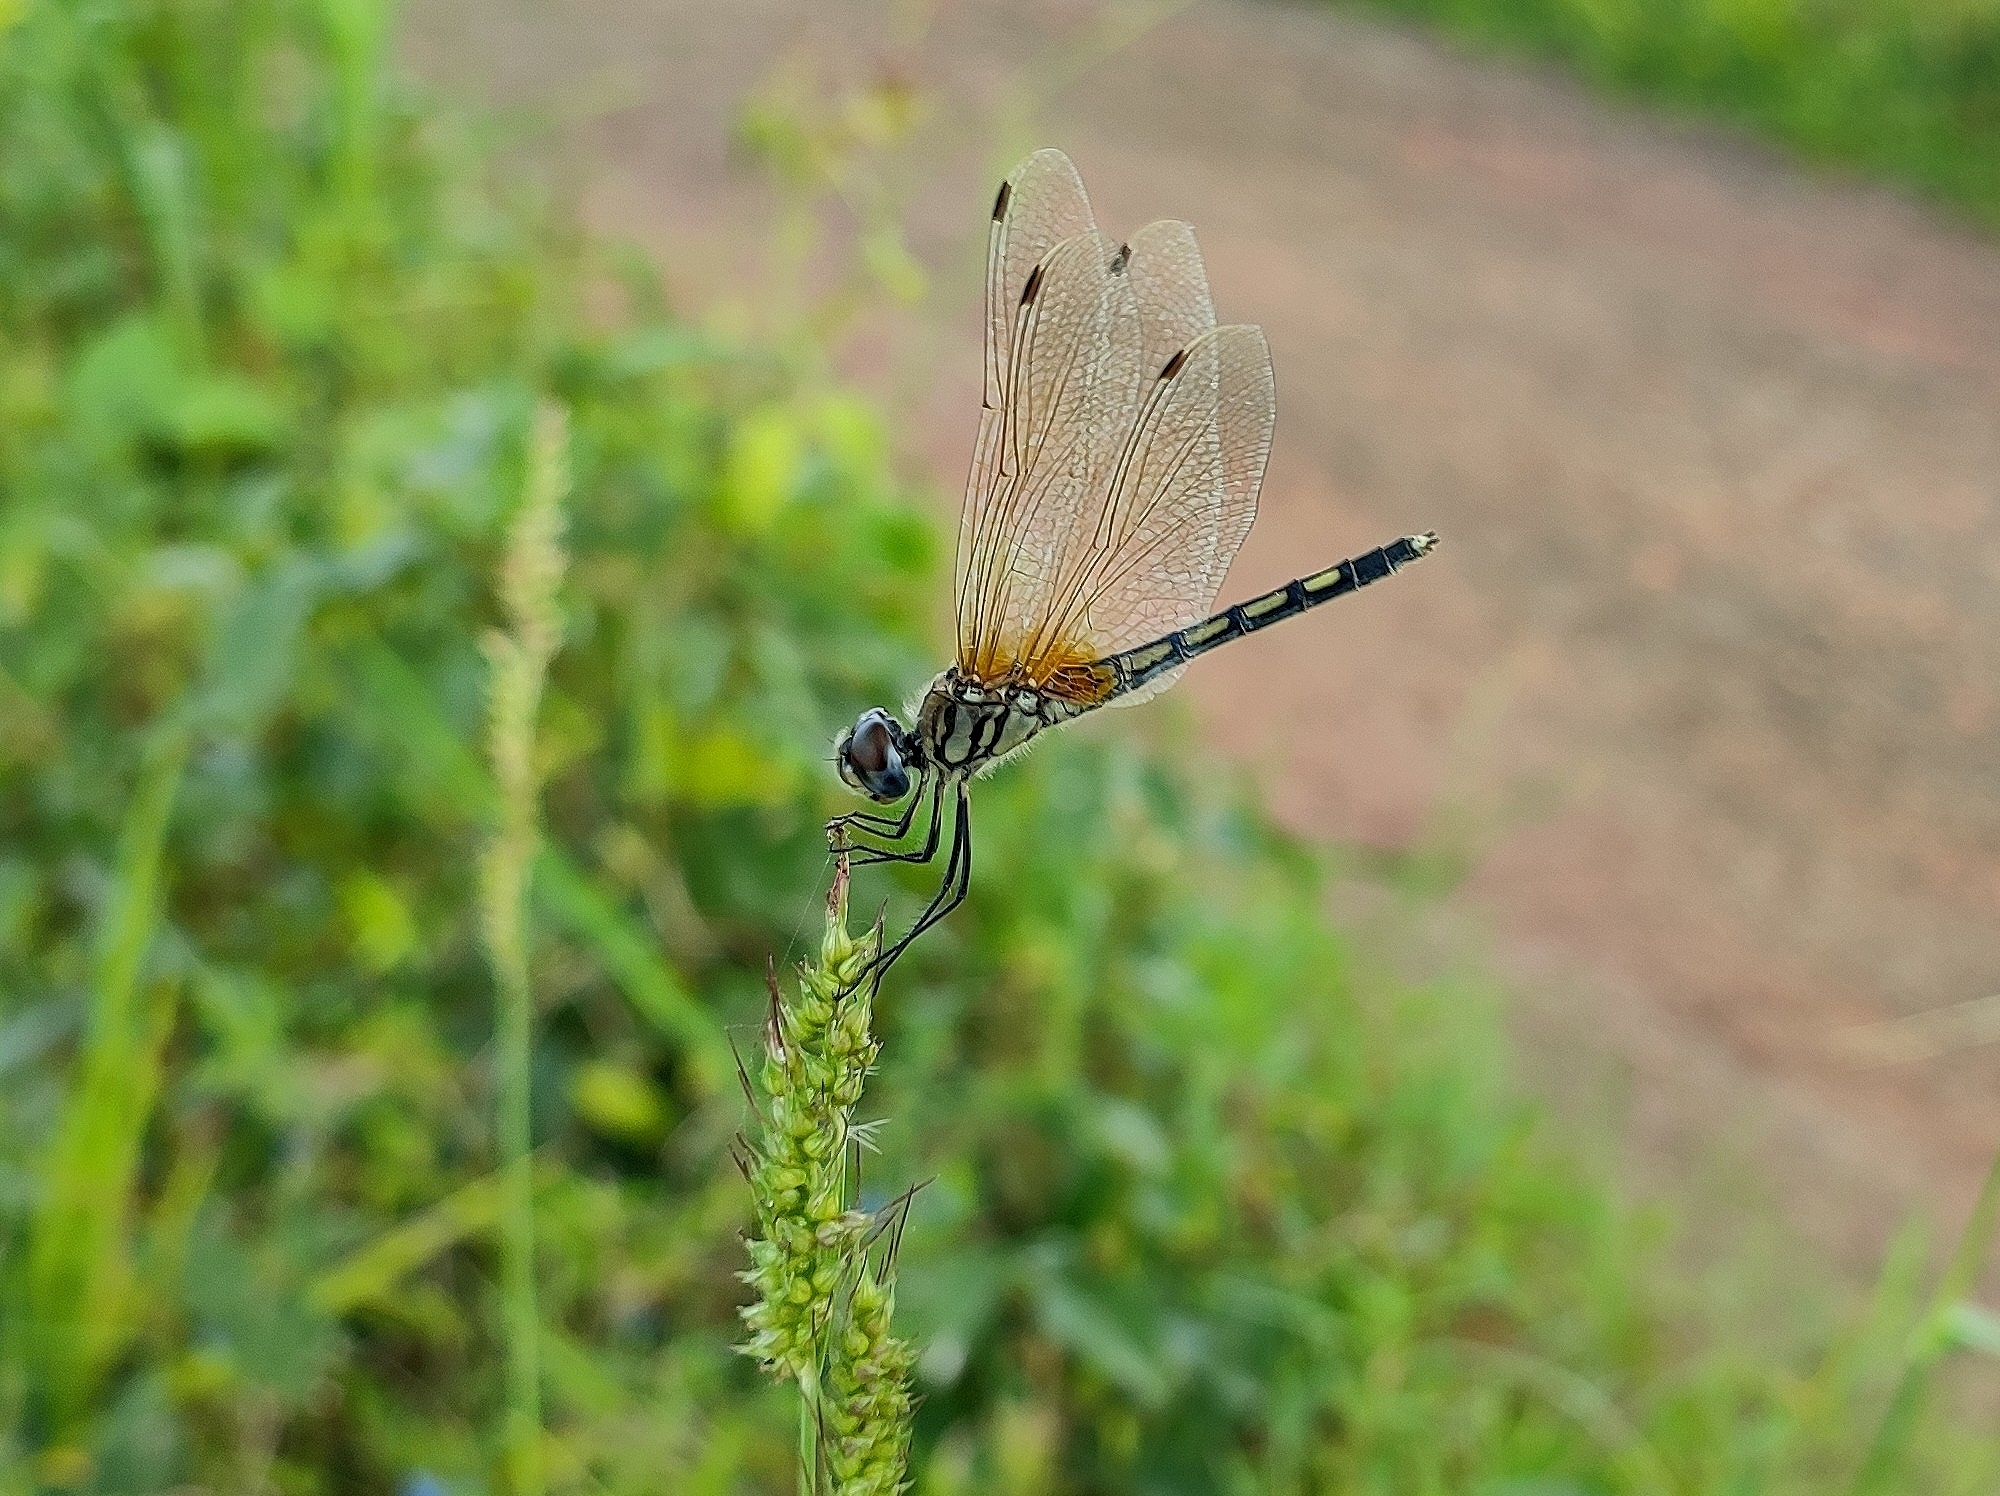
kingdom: Animalia
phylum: Arthropoda
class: Insecta
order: Odonata
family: Libellulidae
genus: Trithemis
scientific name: Trithemis pallidinervis
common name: Dancing dropwing
